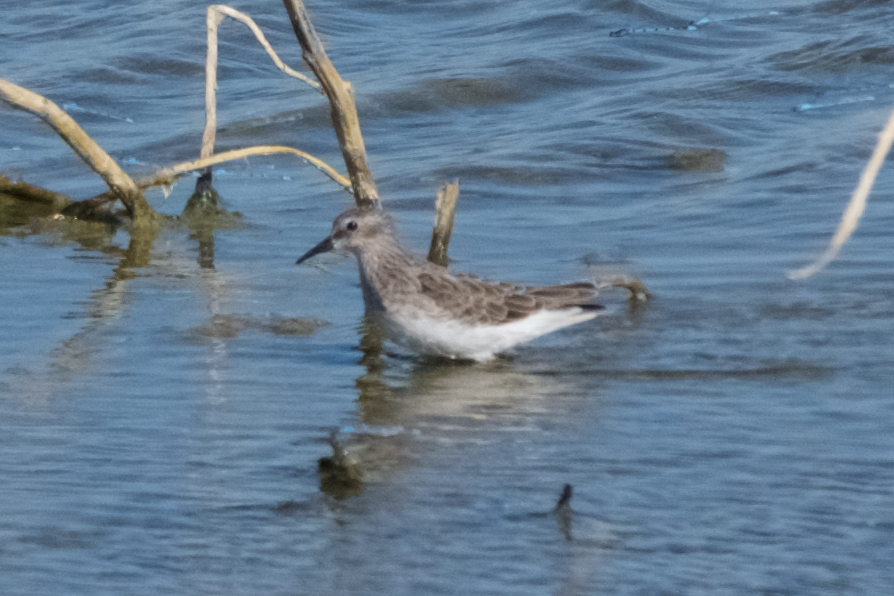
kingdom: Animalia
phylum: Chordata
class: Aves
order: Charadriiformes
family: Scolopacidae
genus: Calidris
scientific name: Calidris minutilla
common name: Least sandpiper
